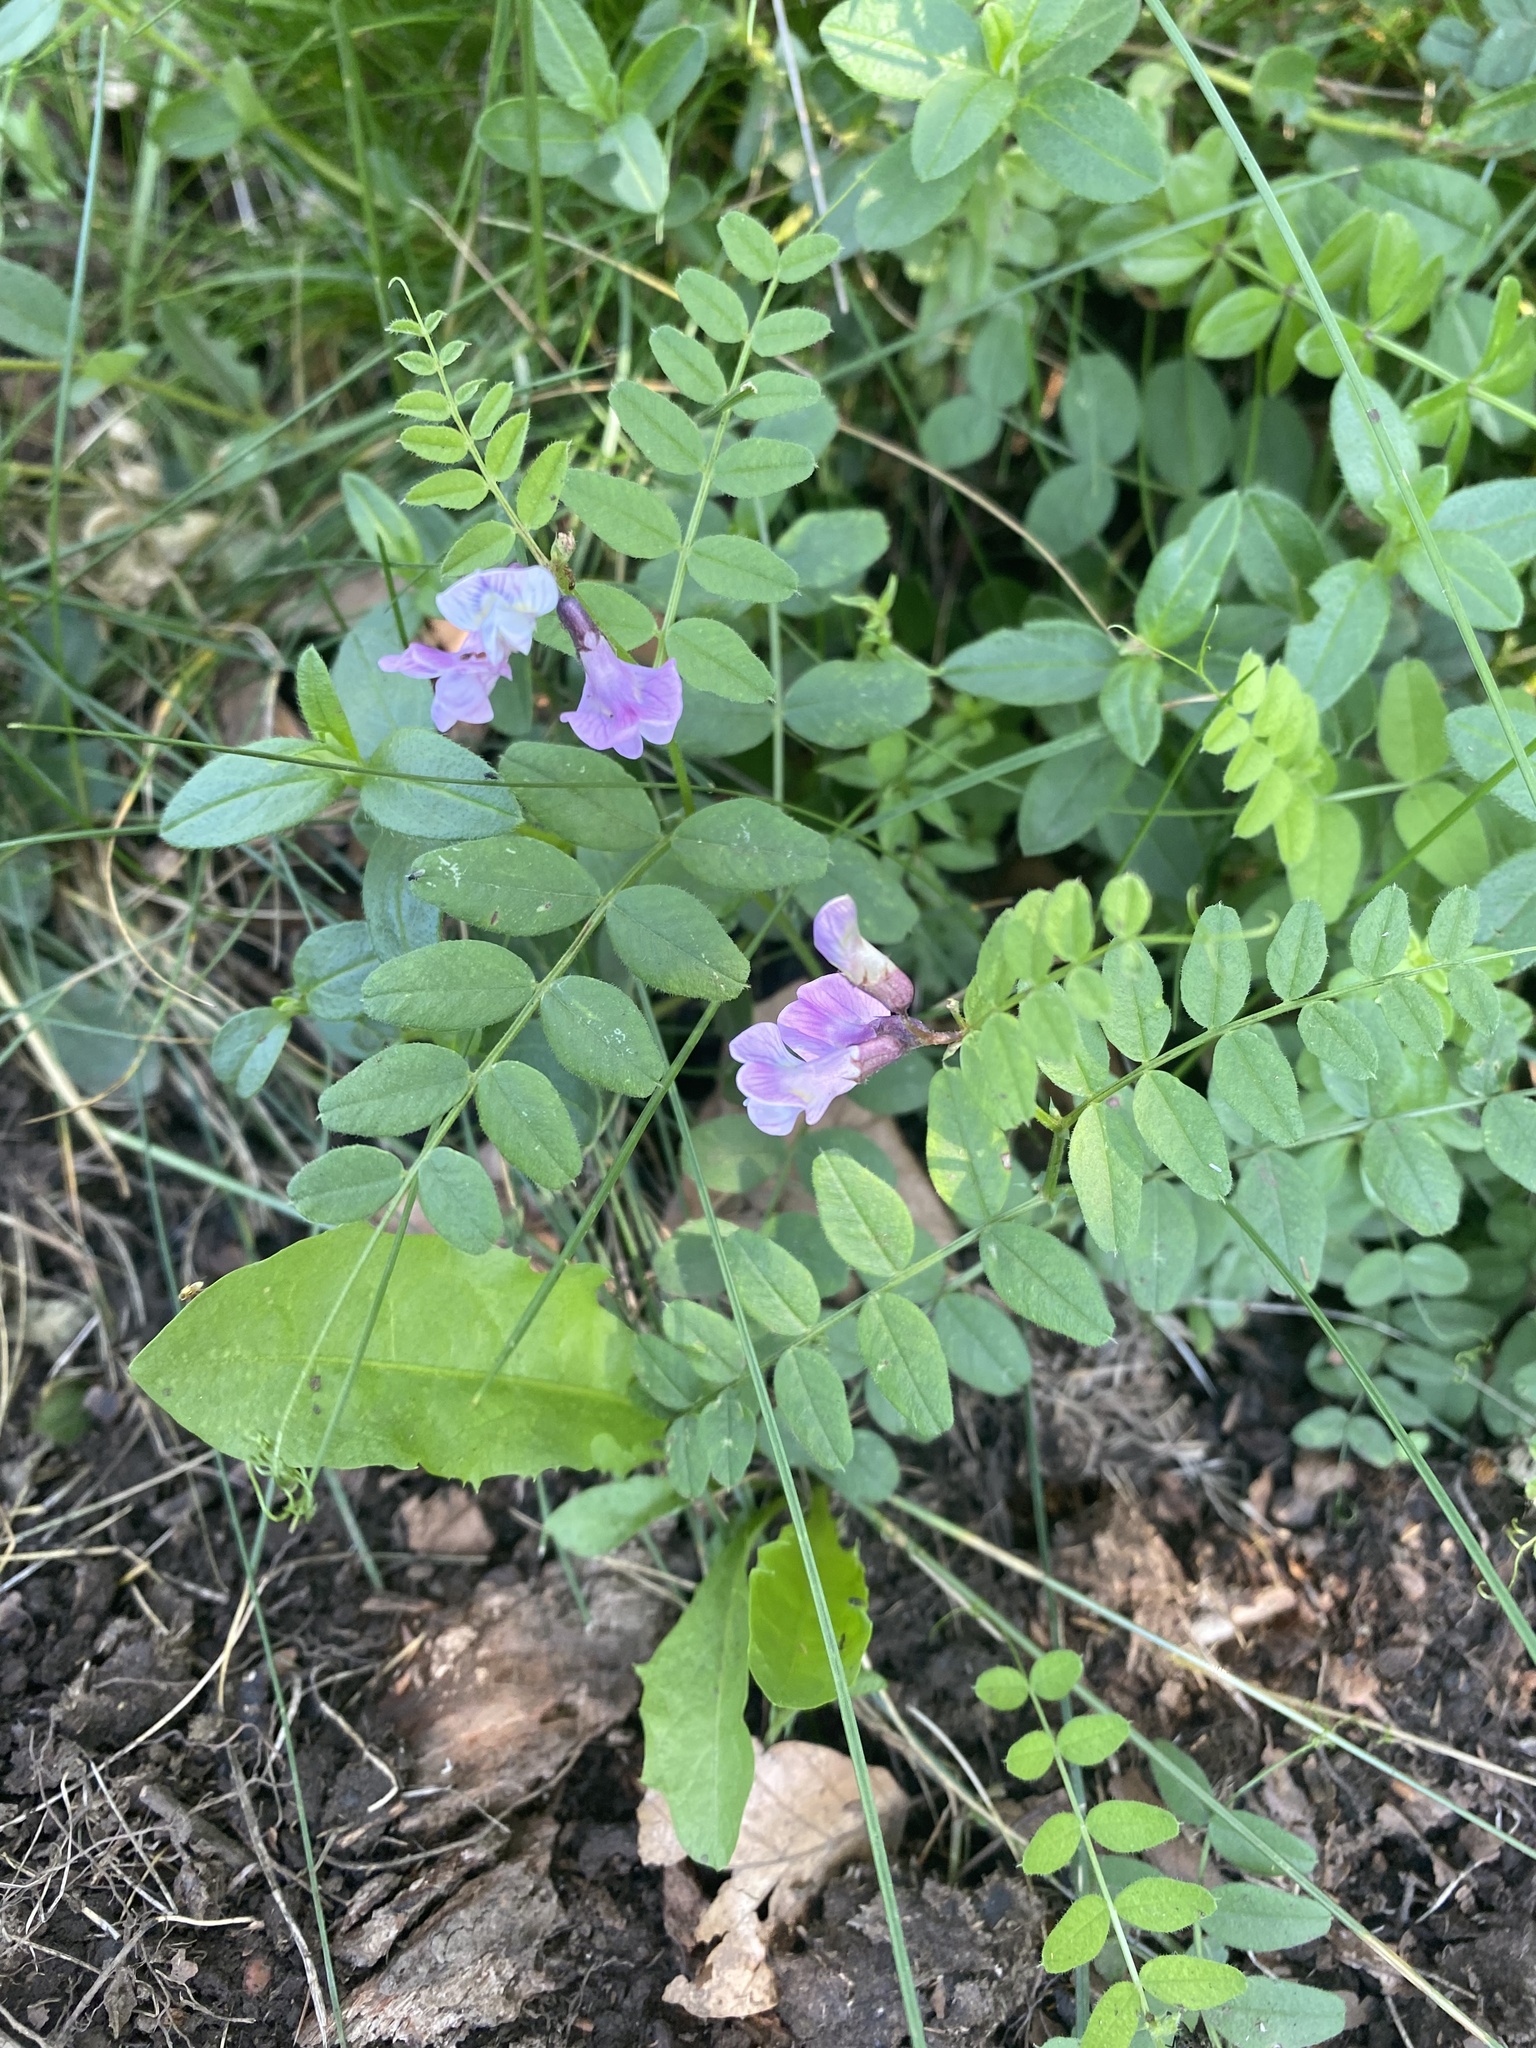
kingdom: Plantae
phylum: Tracheophyta
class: Magnoliopsida
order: Fabales
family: Fabaceae
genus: Vicia
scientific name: Vicia sepium
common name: Bush vetch
